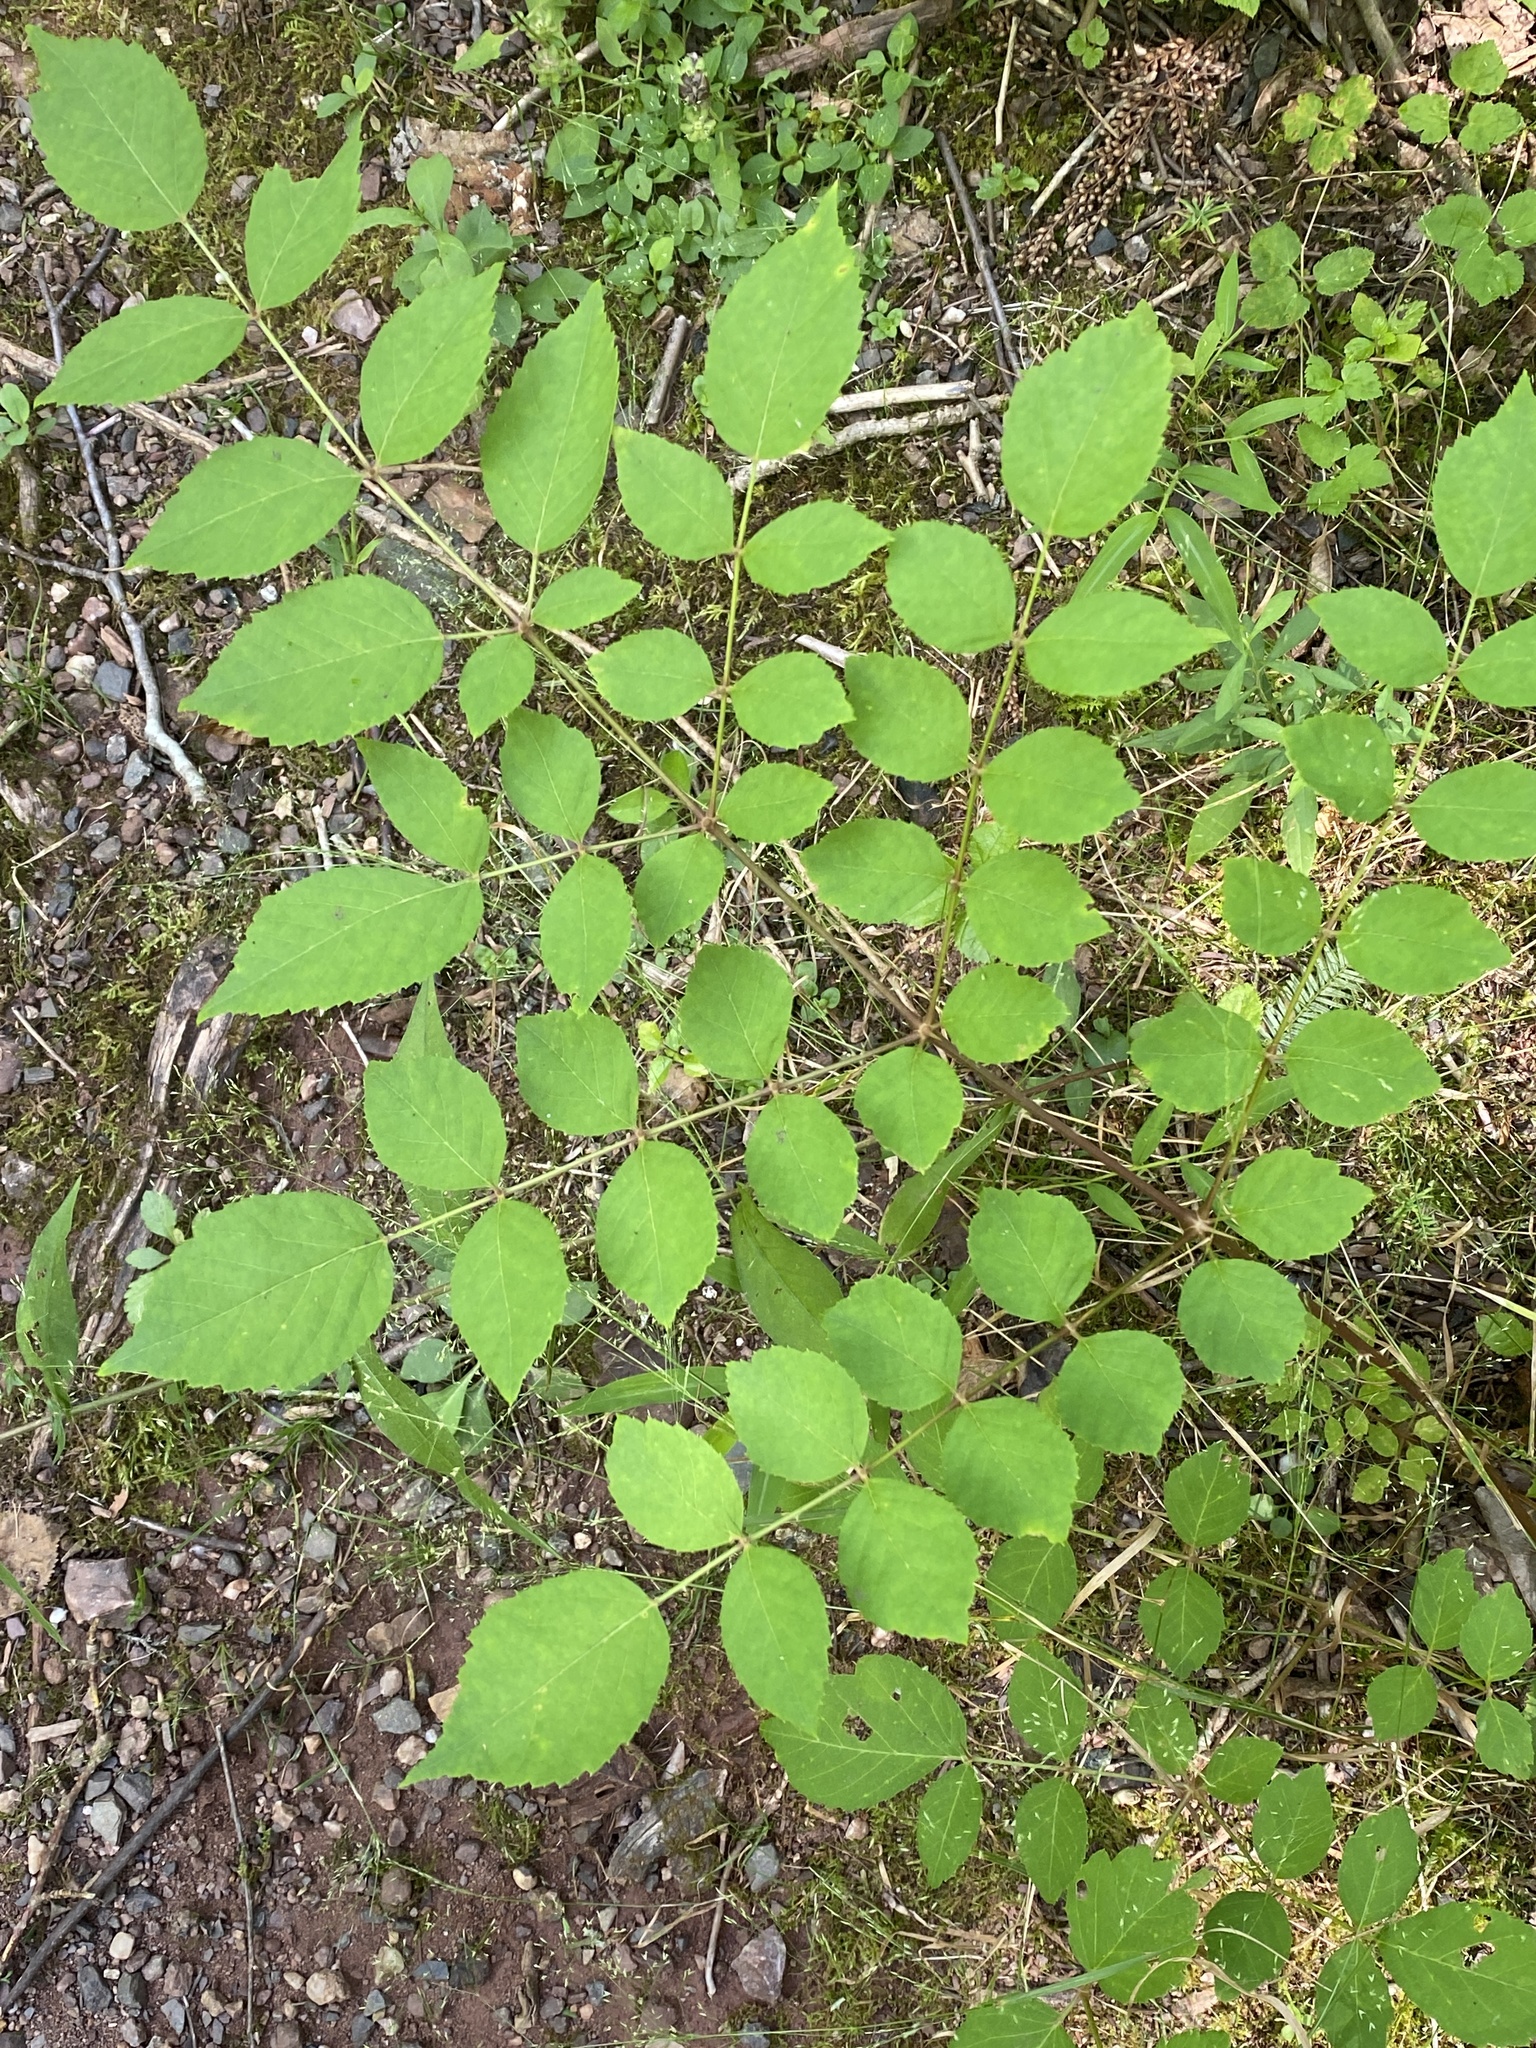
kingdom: Plantae
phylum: Tracheophyta
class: Magnoliopsida
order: Apiales
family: Araliaceae
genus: Aralia
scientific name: Aralia elata
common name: Japanese angelica-tree
